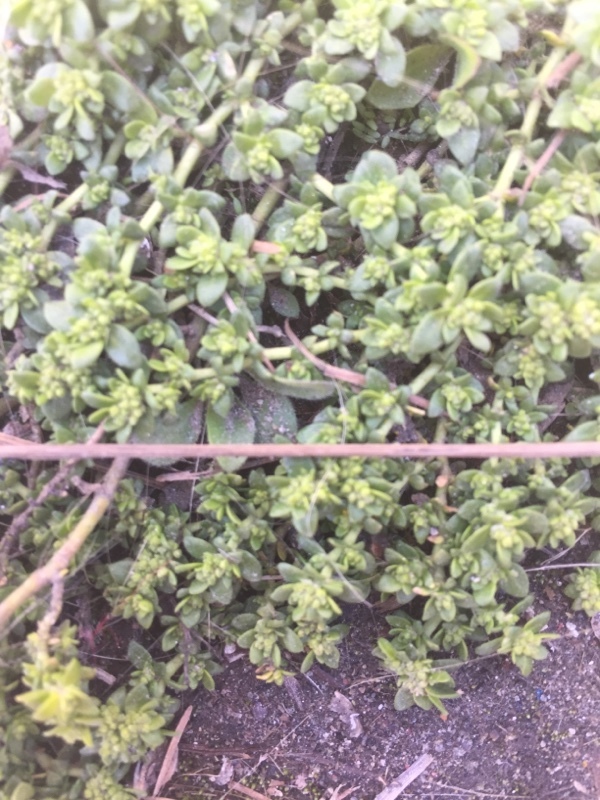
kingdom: Plantae
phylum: Tracheophyta
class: Magnoliopsida
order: Caryophyllales
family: Caryophyllaceae
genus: Herniaria
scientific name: Herniaria glabra
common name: Smooth rupturewort
